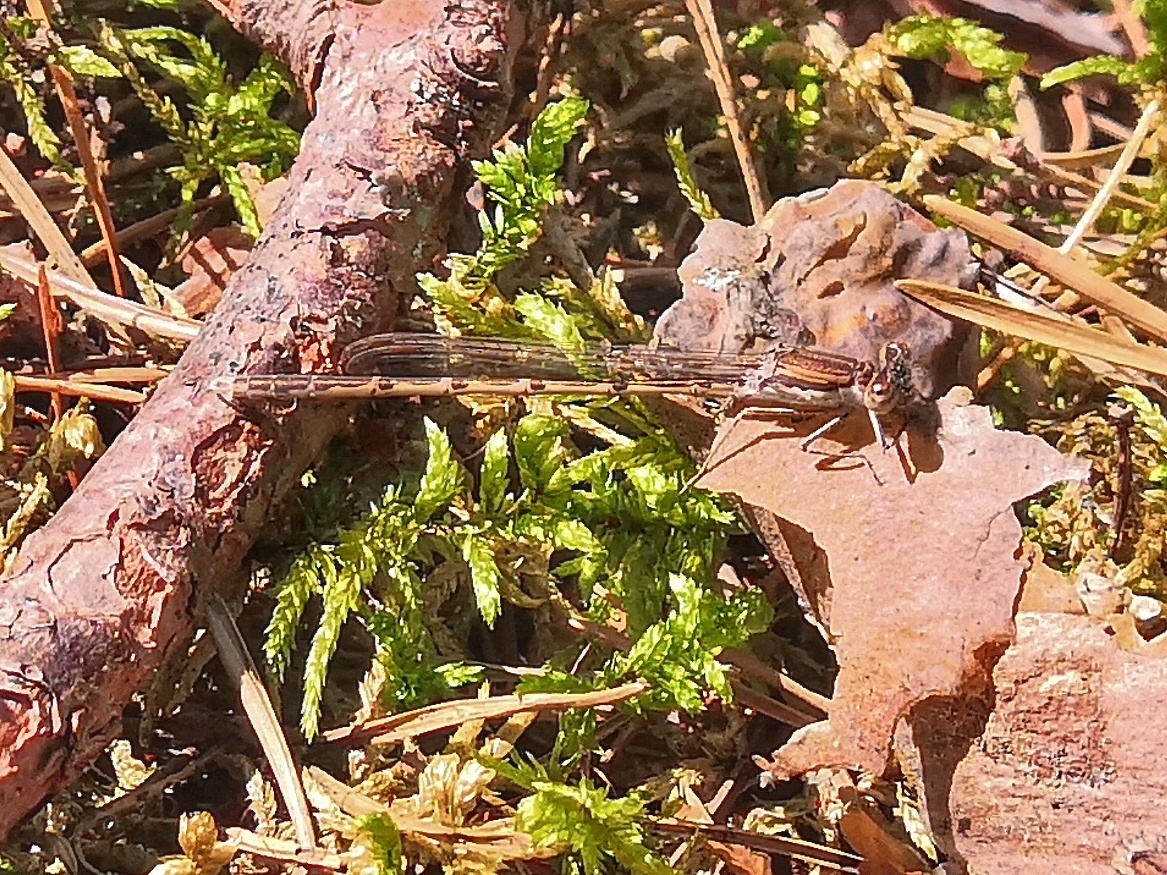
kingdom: Animalia
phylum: Arthropoda
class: Insecta
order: Odonata
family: Lestidae
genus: Sympecma
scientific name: Sympecma fusca
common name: Common winter damsel
